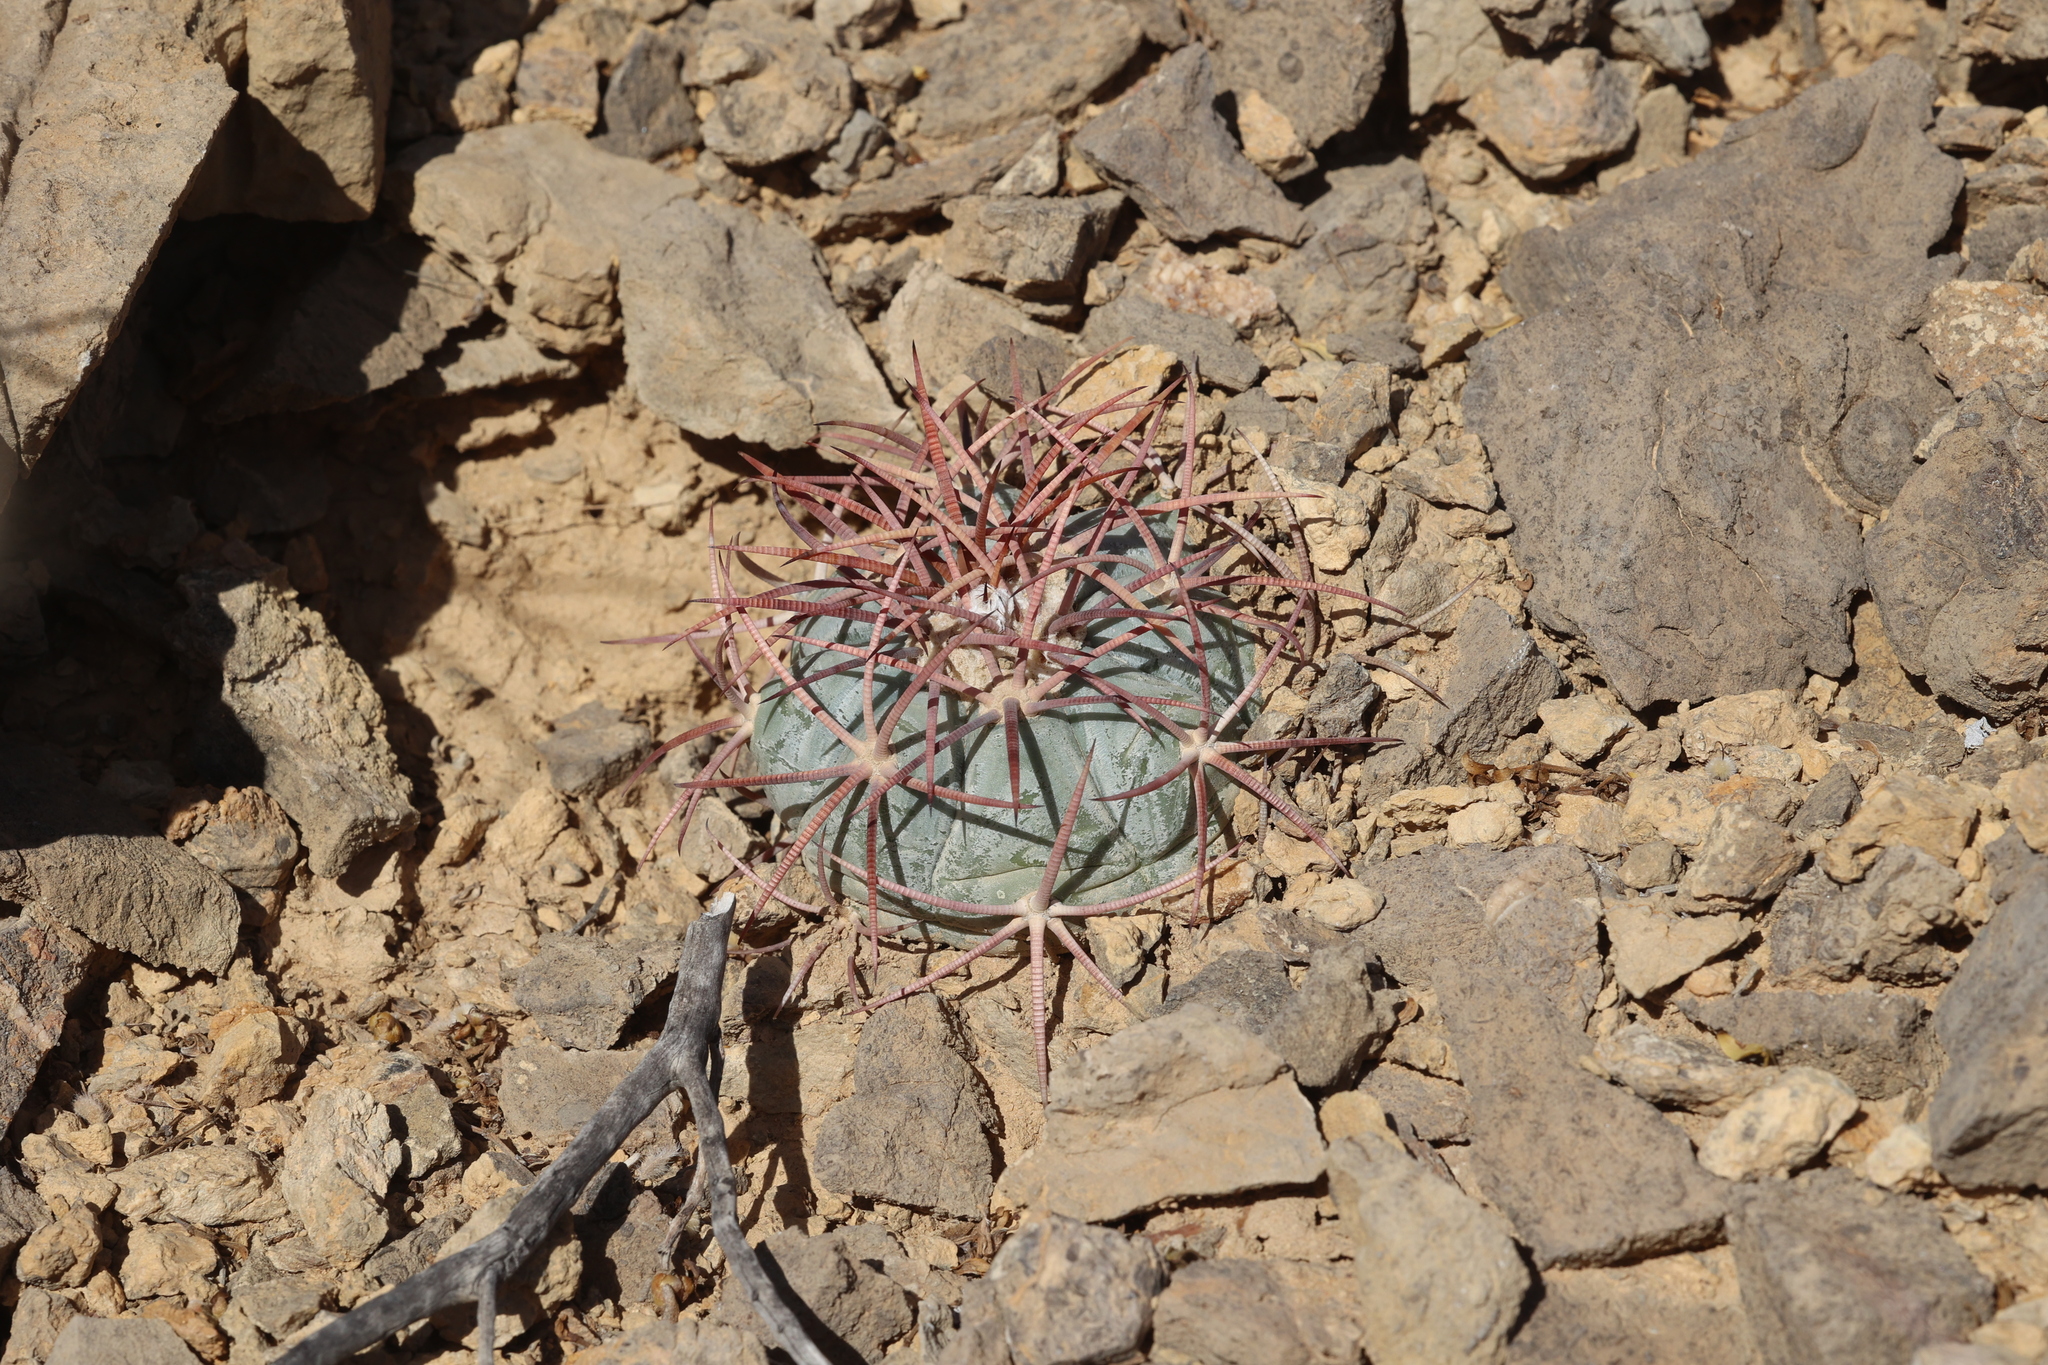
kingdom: Plantae
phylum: Tracheophyta
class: Magnoliopsida
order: Caryophyllales
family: Cactaceae
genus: Echinocactus
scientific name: Echinocactus horizonthalonius
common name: Devilshead
